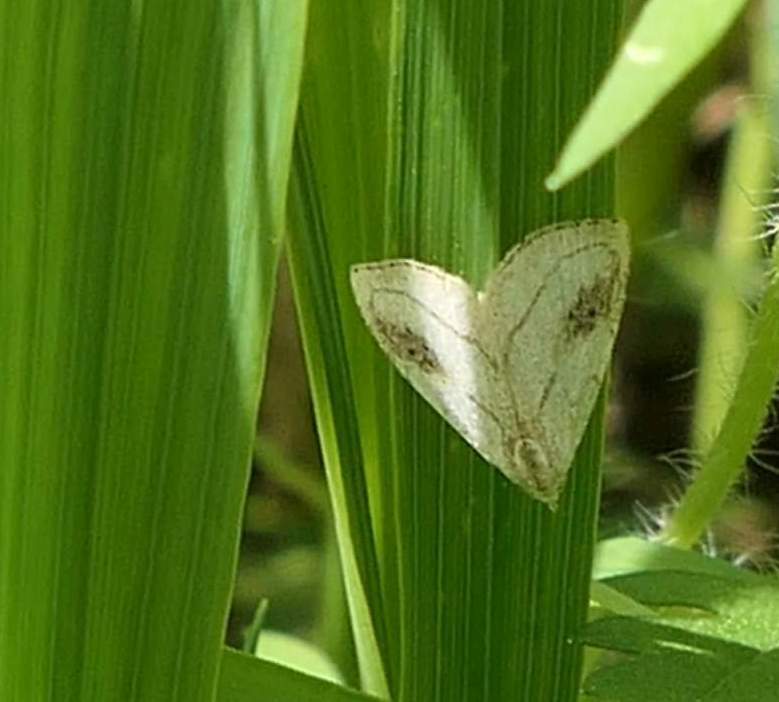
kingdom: Animalia
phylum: Arthropoda
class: Insecta
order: Lepidoptera
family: Erebidae
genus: Rivula
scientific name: Rivula propinqualis
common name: Spotted grass moth
